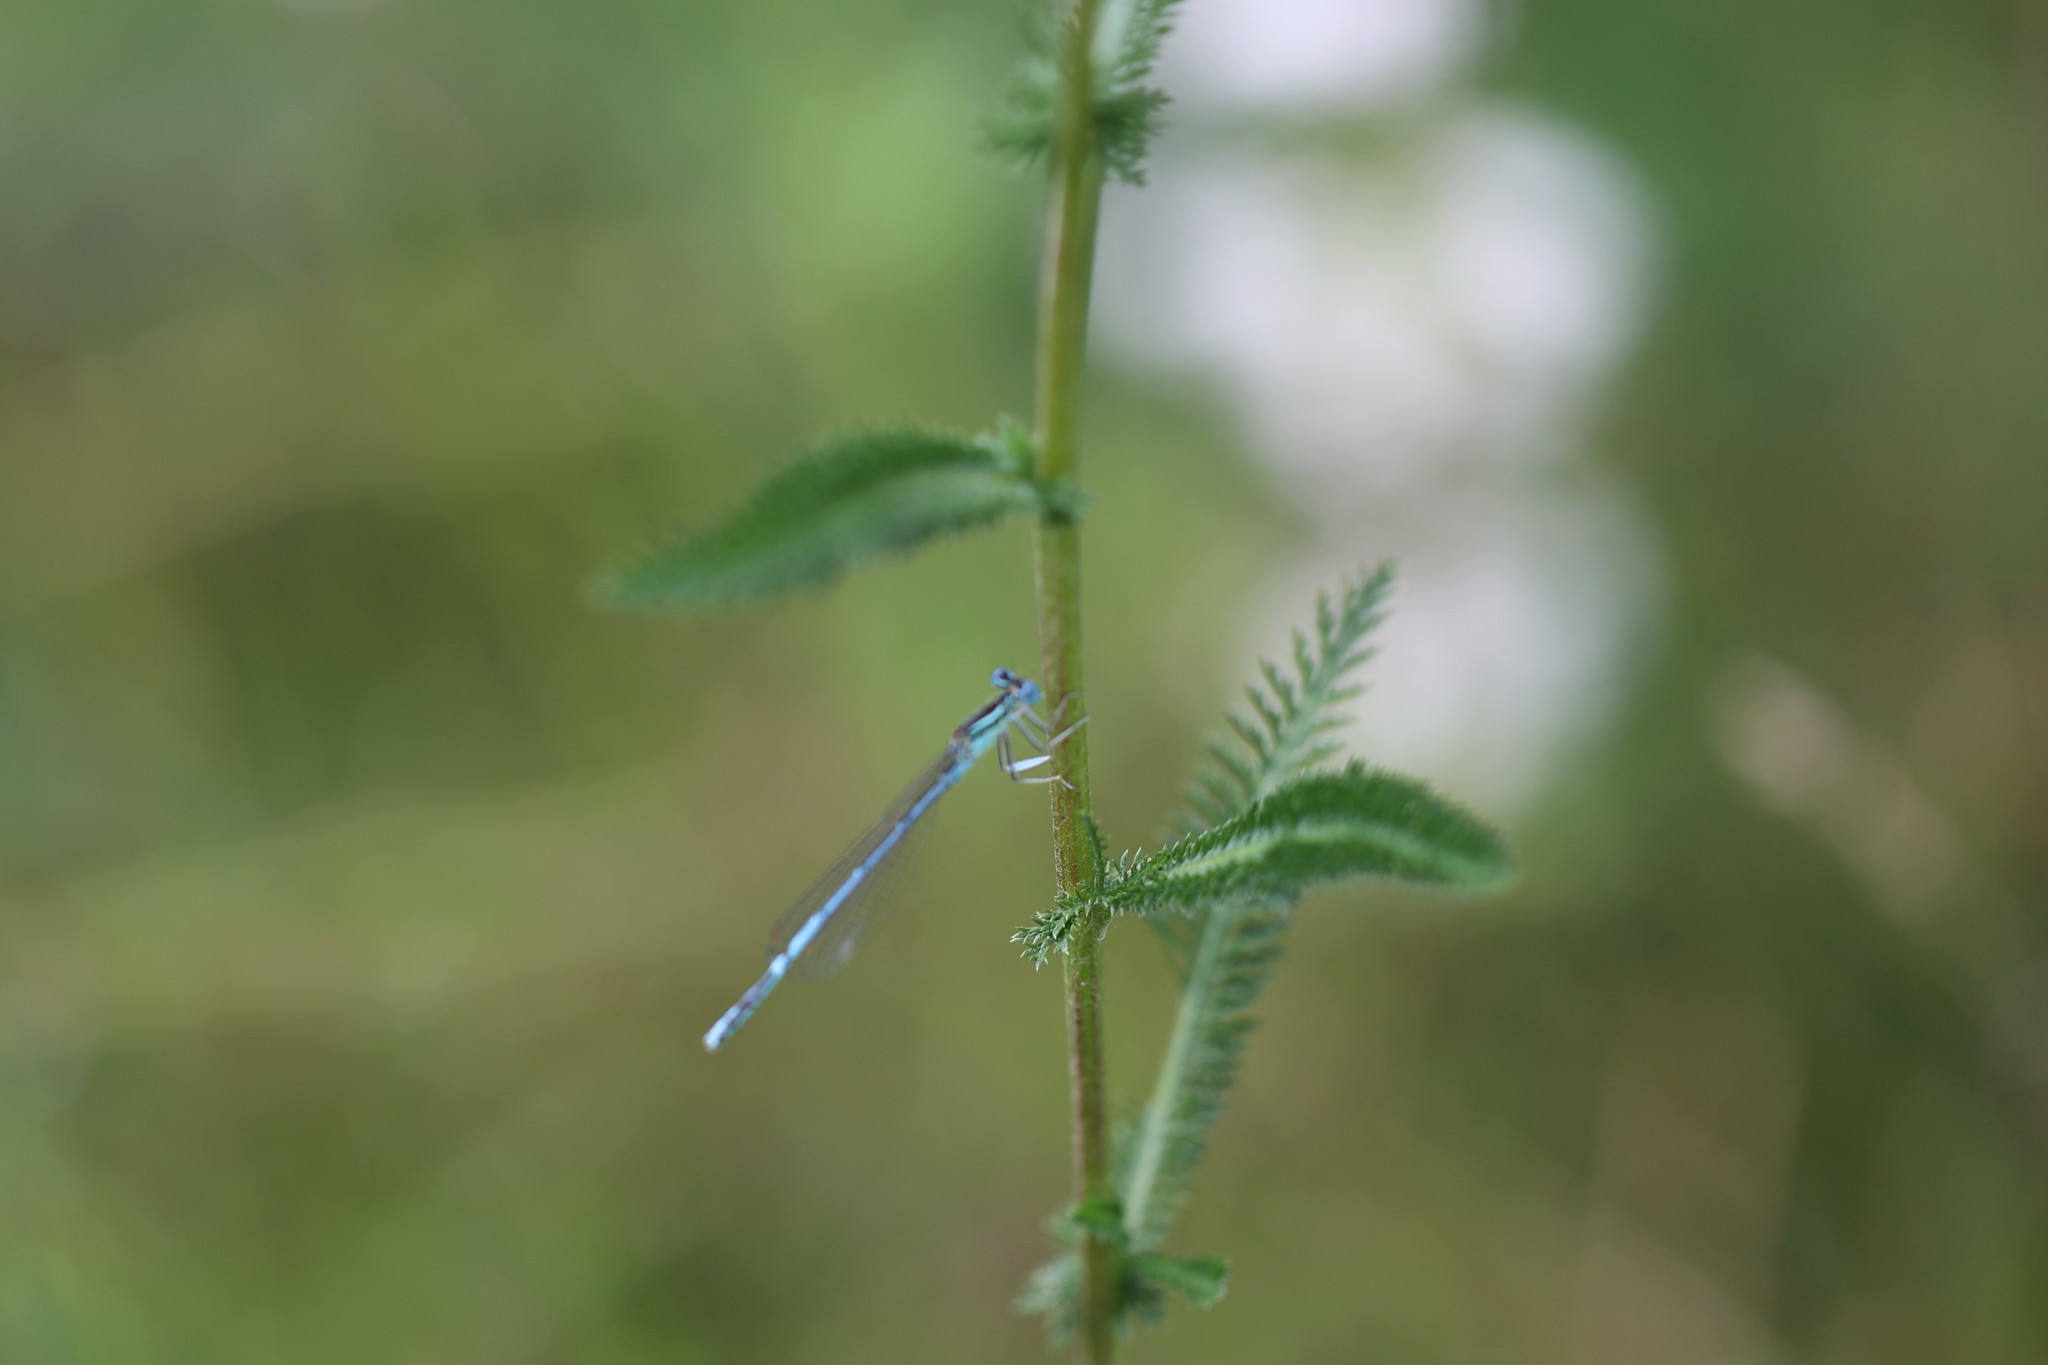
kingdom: Animalia
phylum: Arthropoda
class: Insecta
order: Odonata
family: Platycnemididae
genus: Platycnemis
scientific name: Platycnemis pennipes
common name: White-legged damselfly
